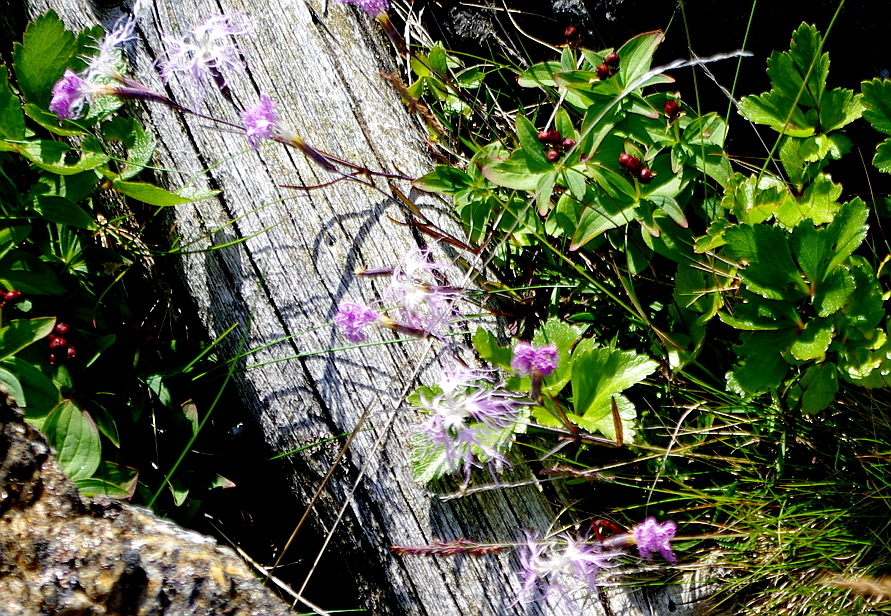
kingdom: Plantae
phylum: Tracheophyta
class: Magnoliopsida
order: Caryophyllales
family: Caryophyllaceae
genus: Dianthus
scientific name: Dianthus superbus
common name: Fringed pink
